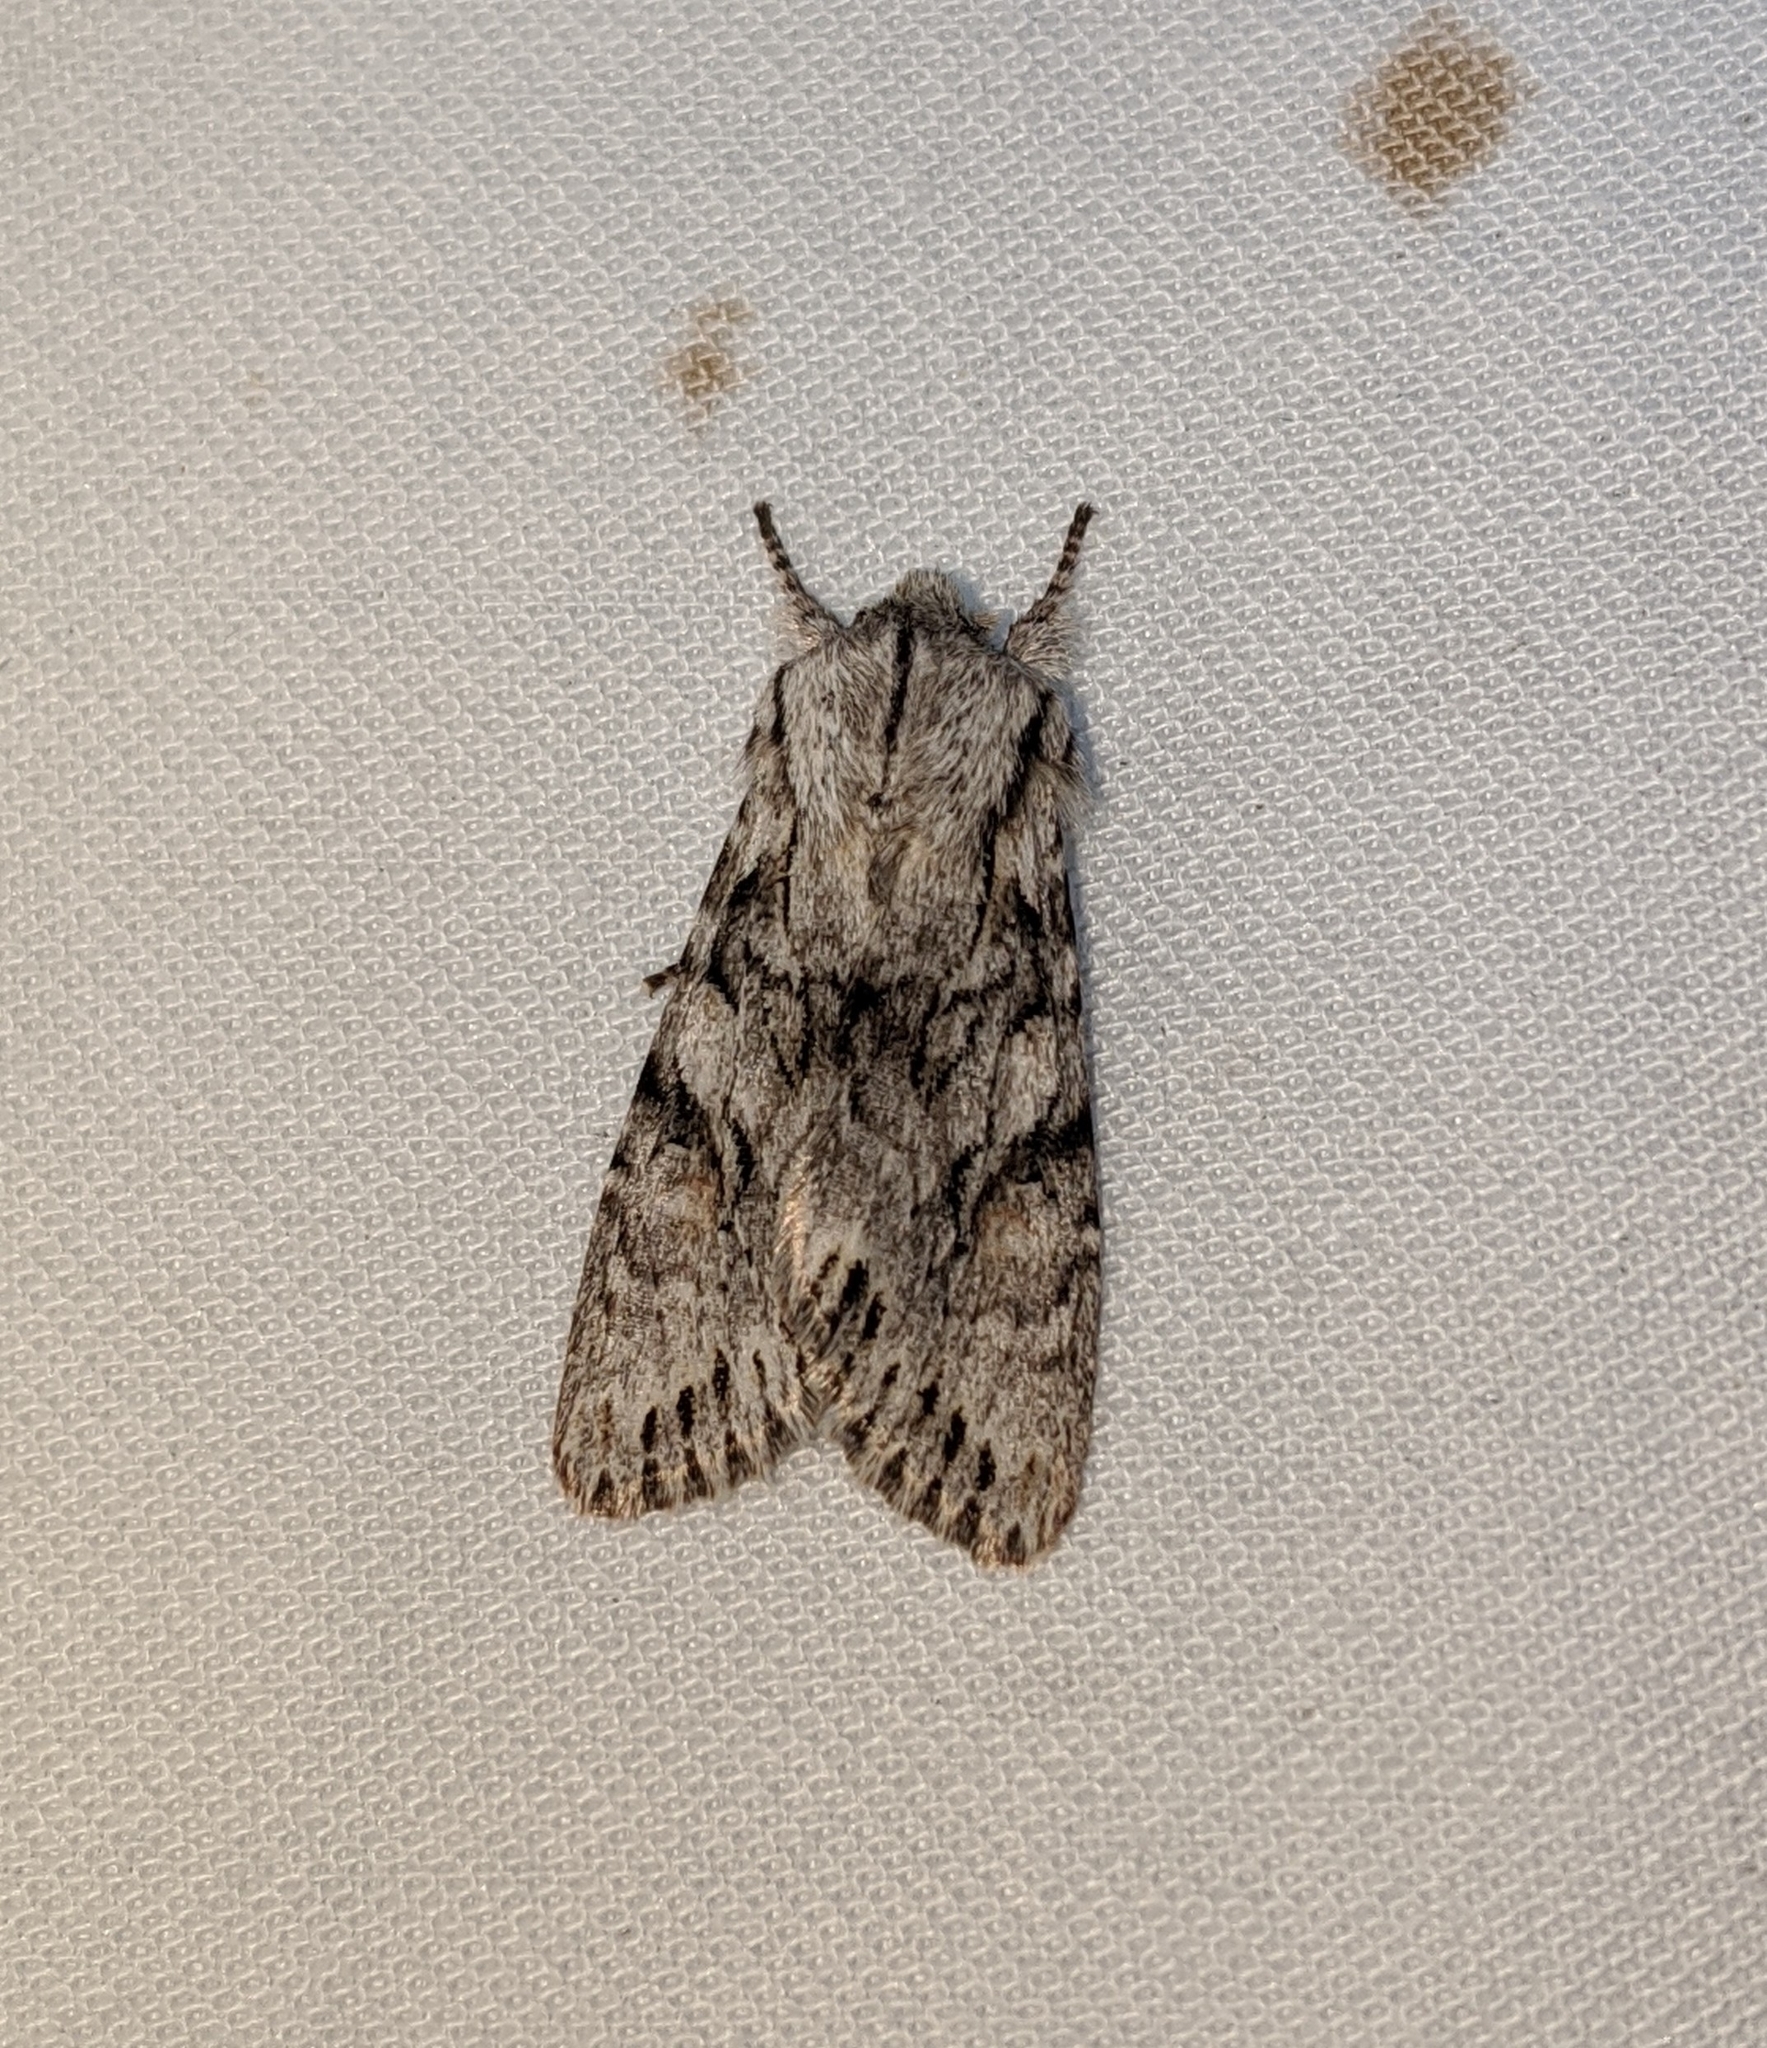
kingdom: Animalia
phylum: Arthropoda
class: Insecta
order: Lepidoptera
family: Noctuidae
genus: Egira
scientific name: Egira simplex
